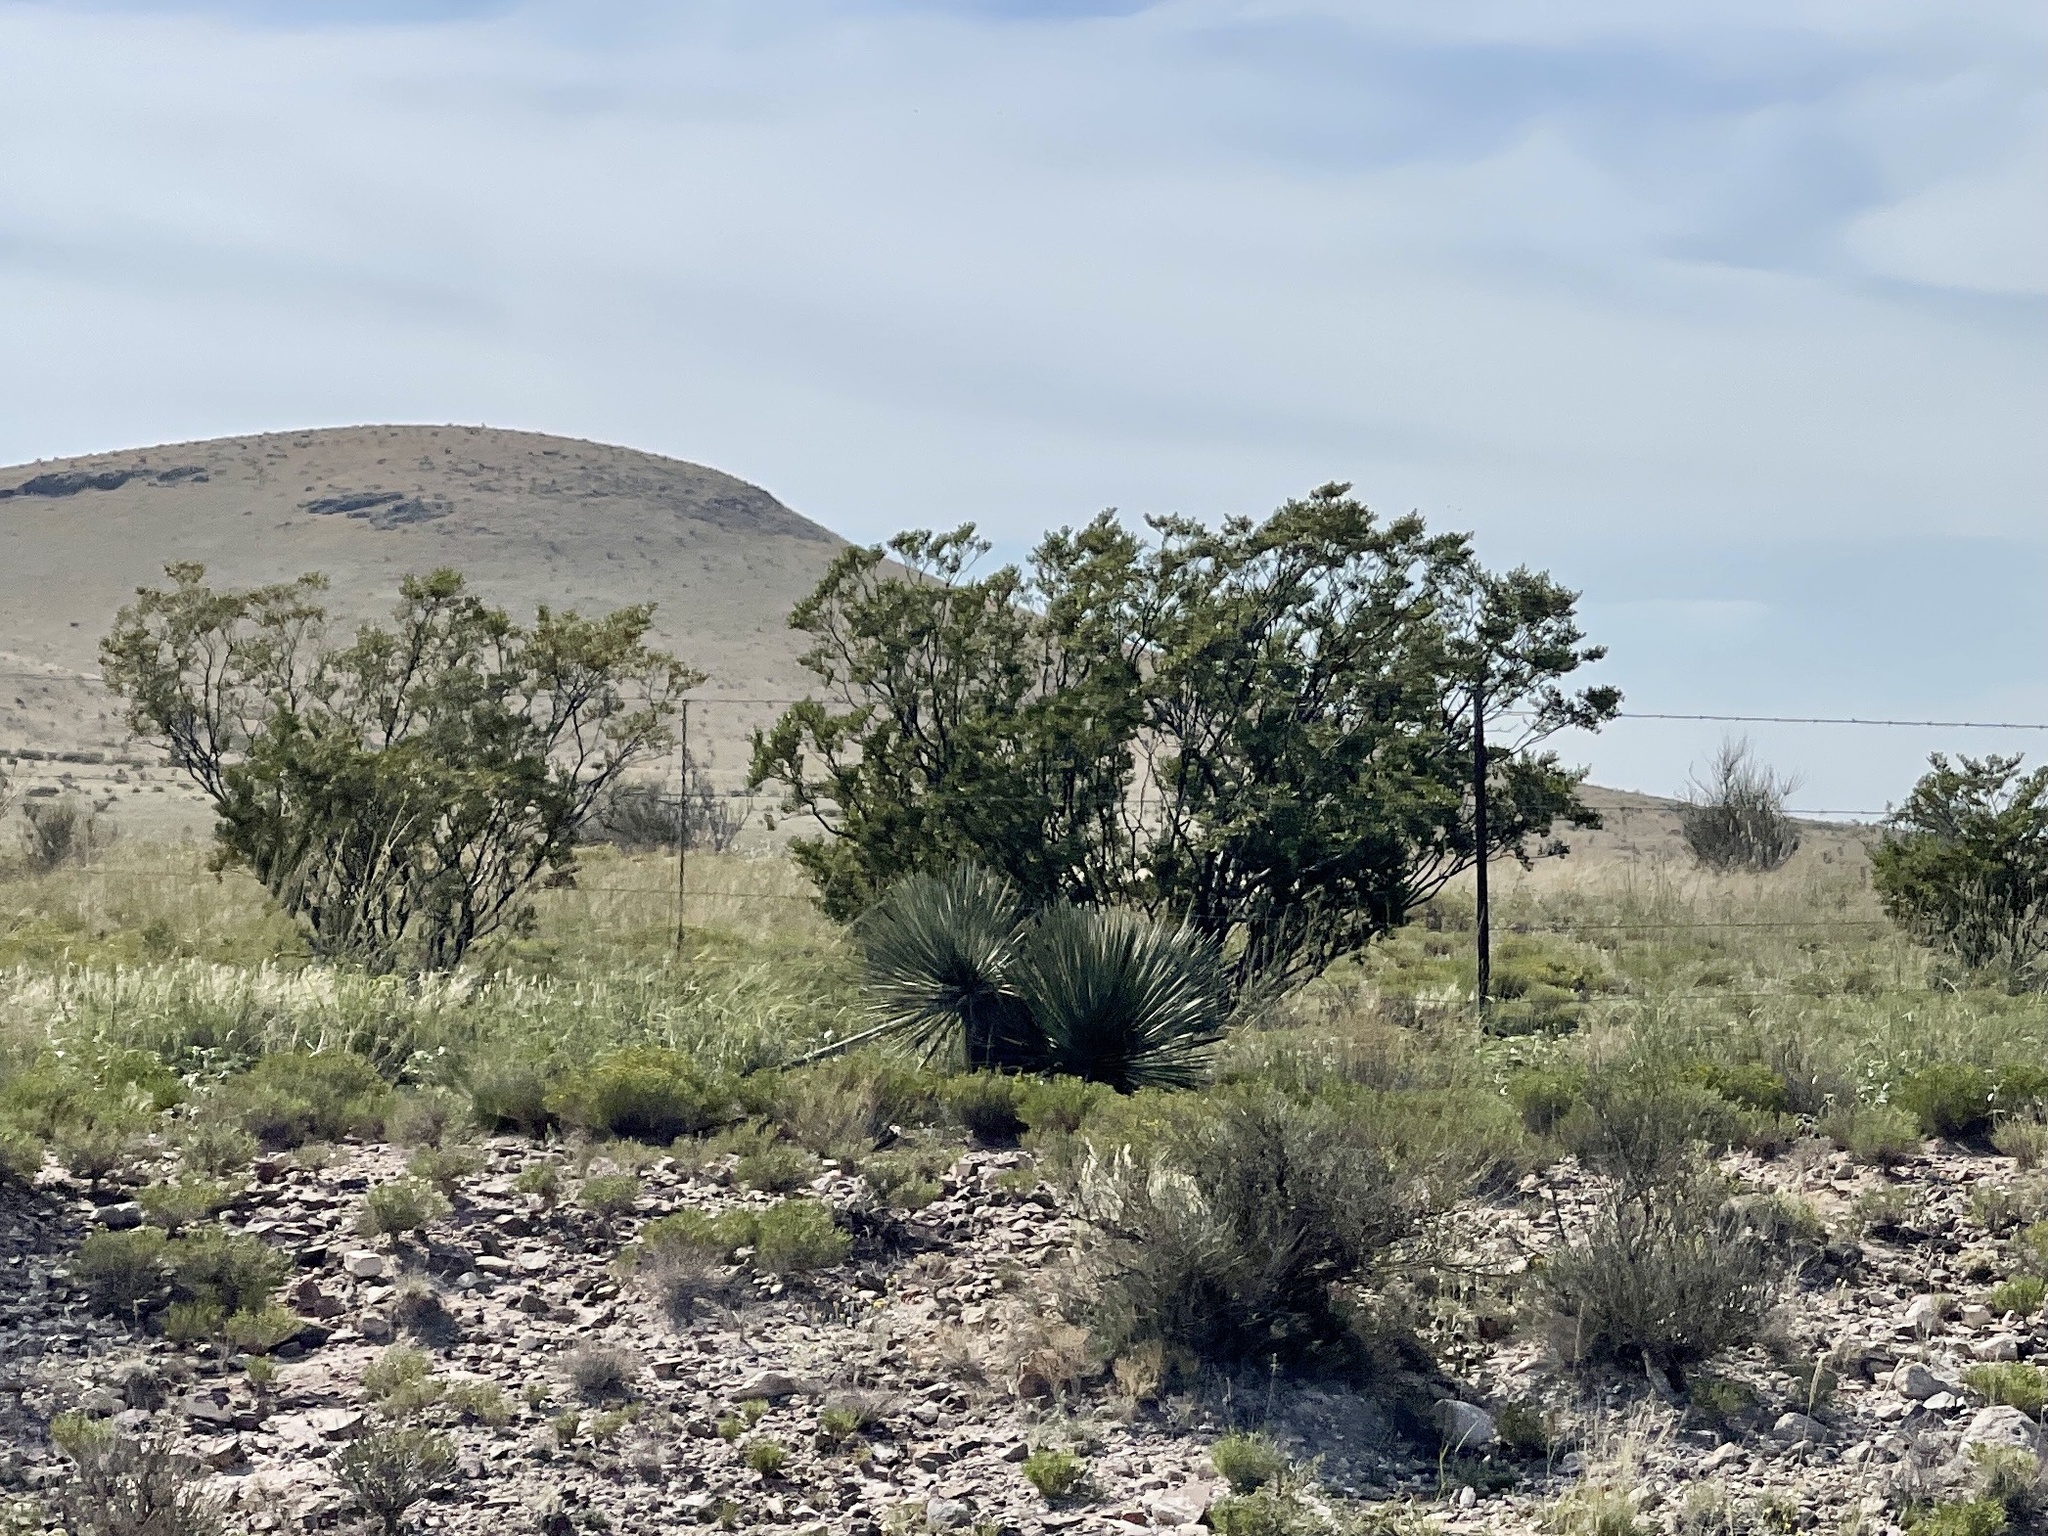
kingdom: Plantae
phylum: Tracheophyta
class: Magnoliopsida
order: Zygophyllales
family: Zygophyllaceae
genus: Larrea
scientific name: Larrea tridentata
